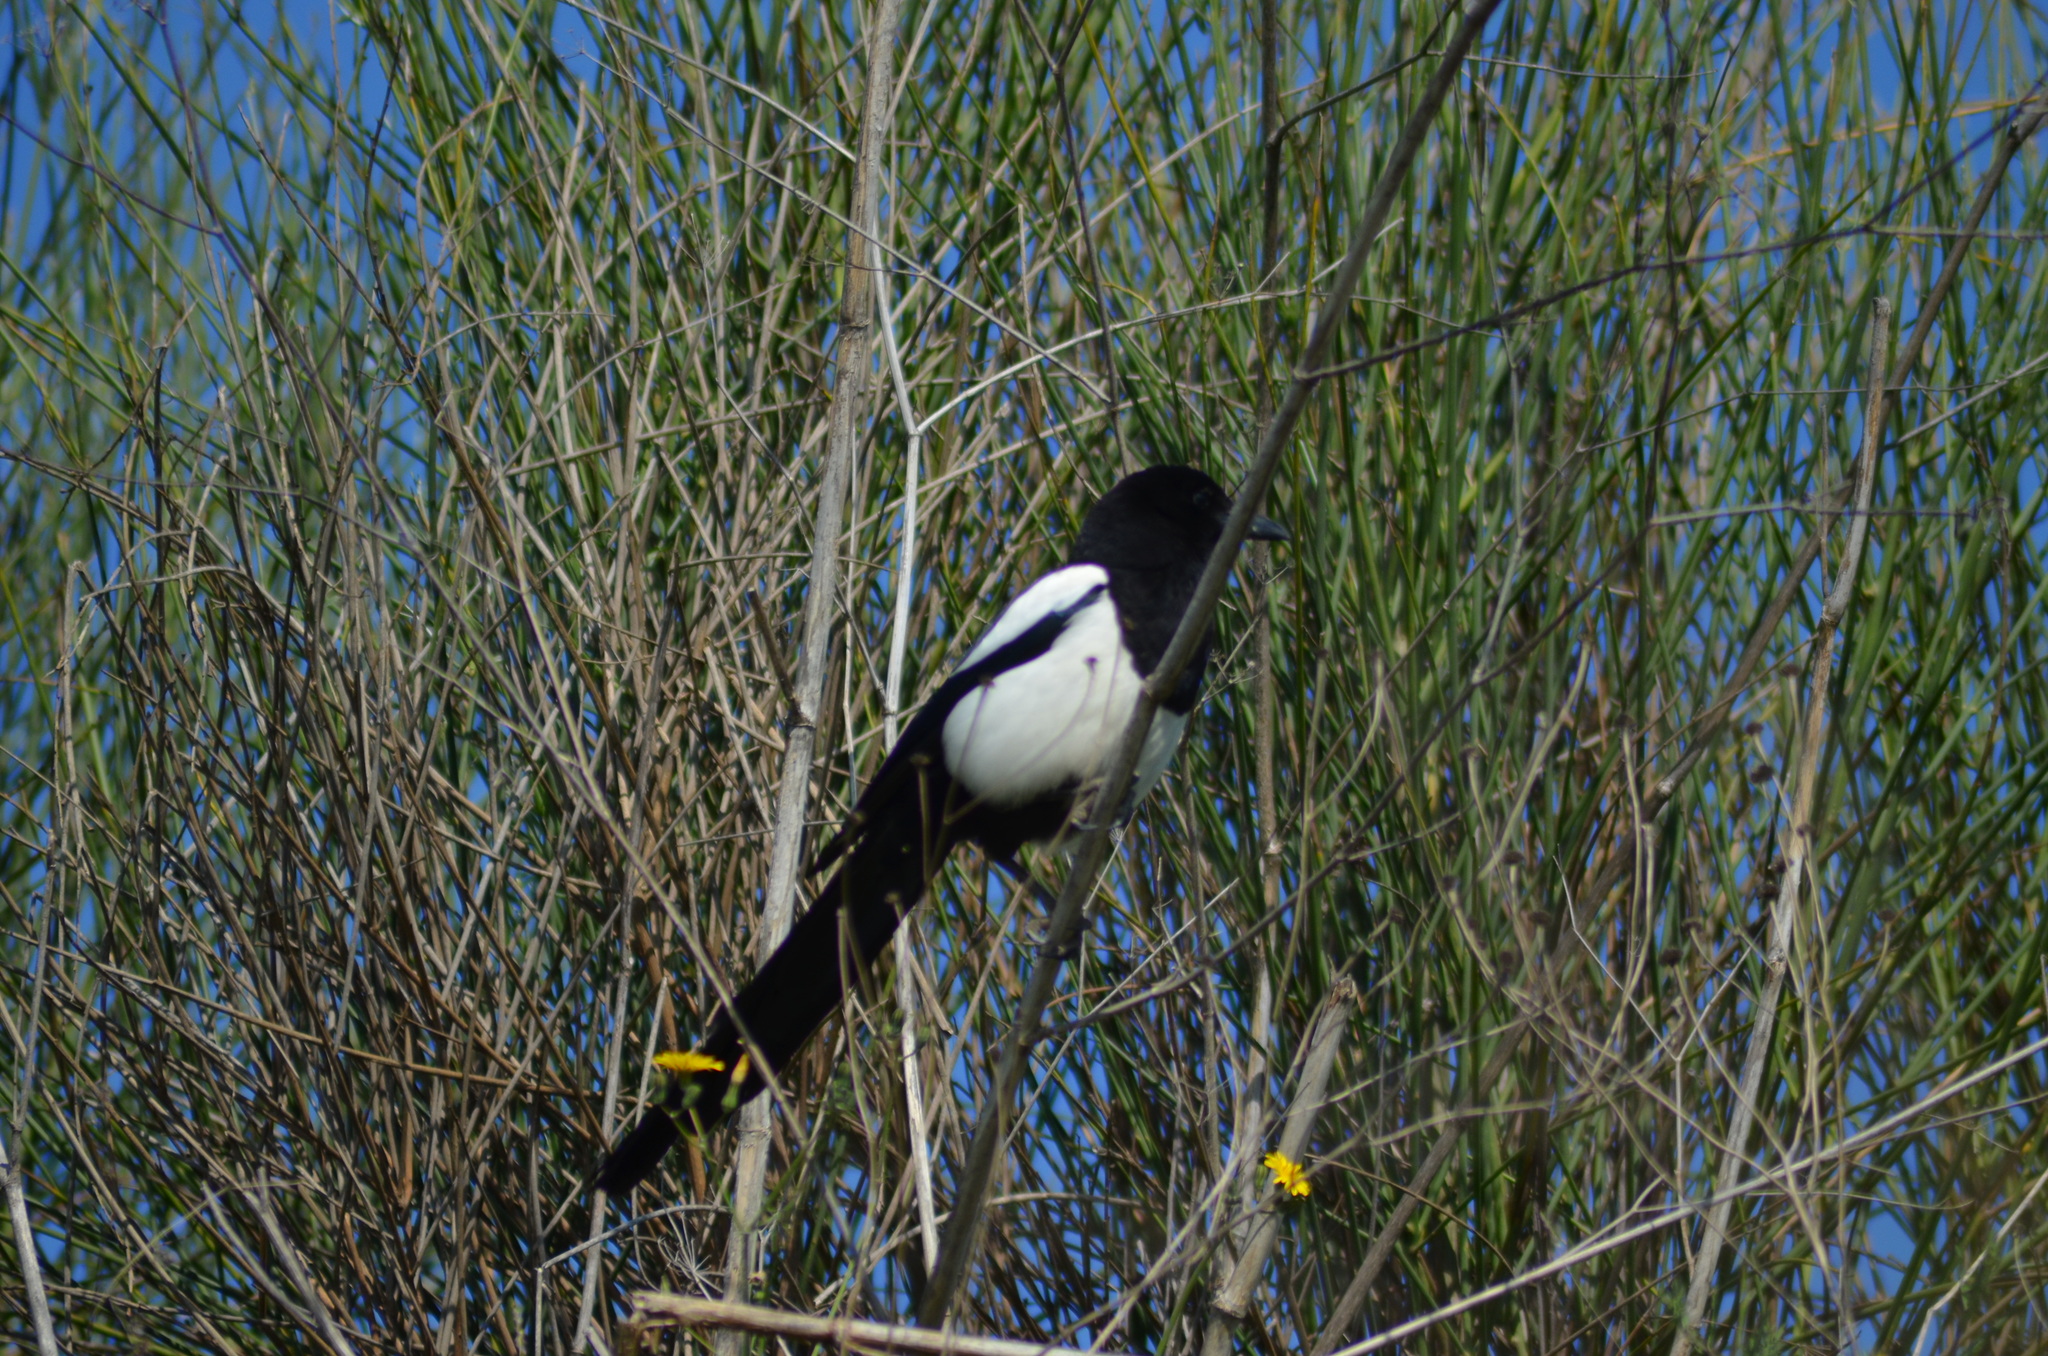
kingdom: Animalia
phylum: Chordata
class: Aves
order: Passeriformes
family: Corvidae
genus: Pica
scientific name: Pica pica
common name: Eurasian magpie
